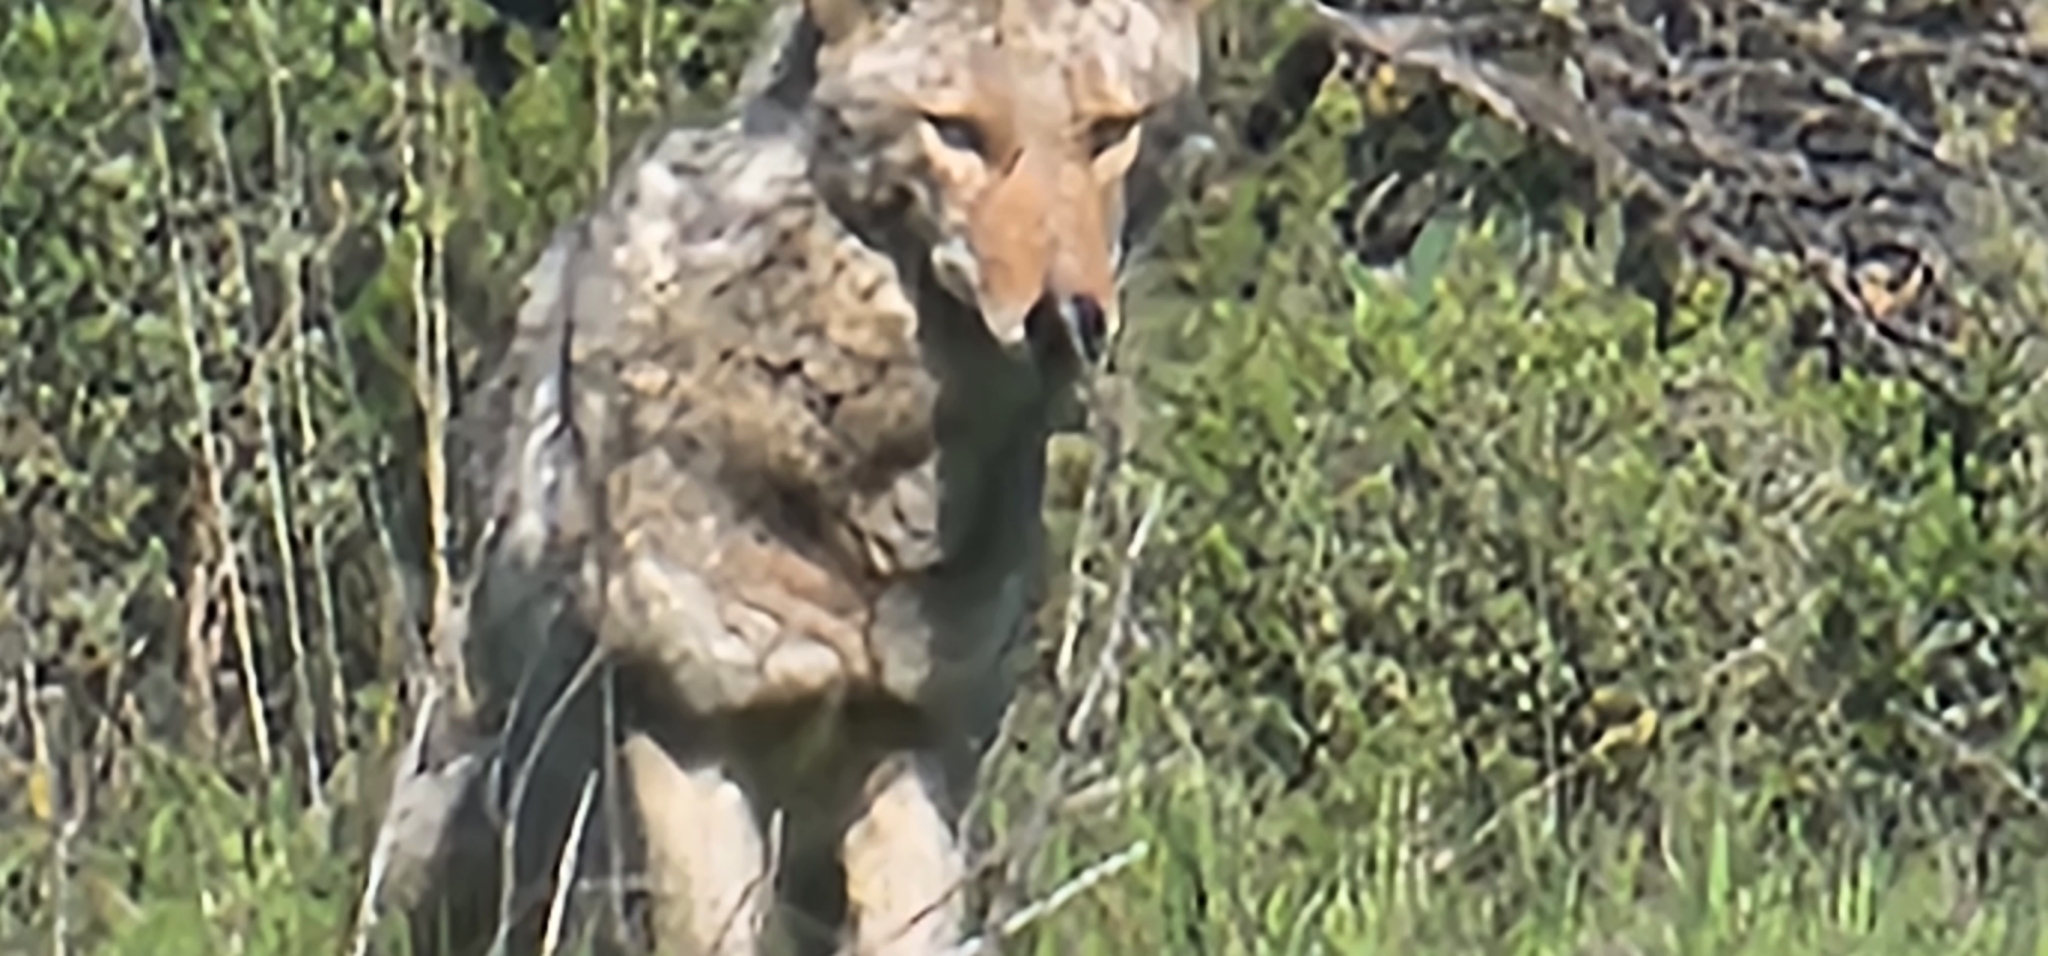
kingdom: Animalia
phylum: Chordata
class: Mammalia
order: Carnivora
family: Canidae
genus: Canis
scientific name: Canis latrans
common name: Coyote
